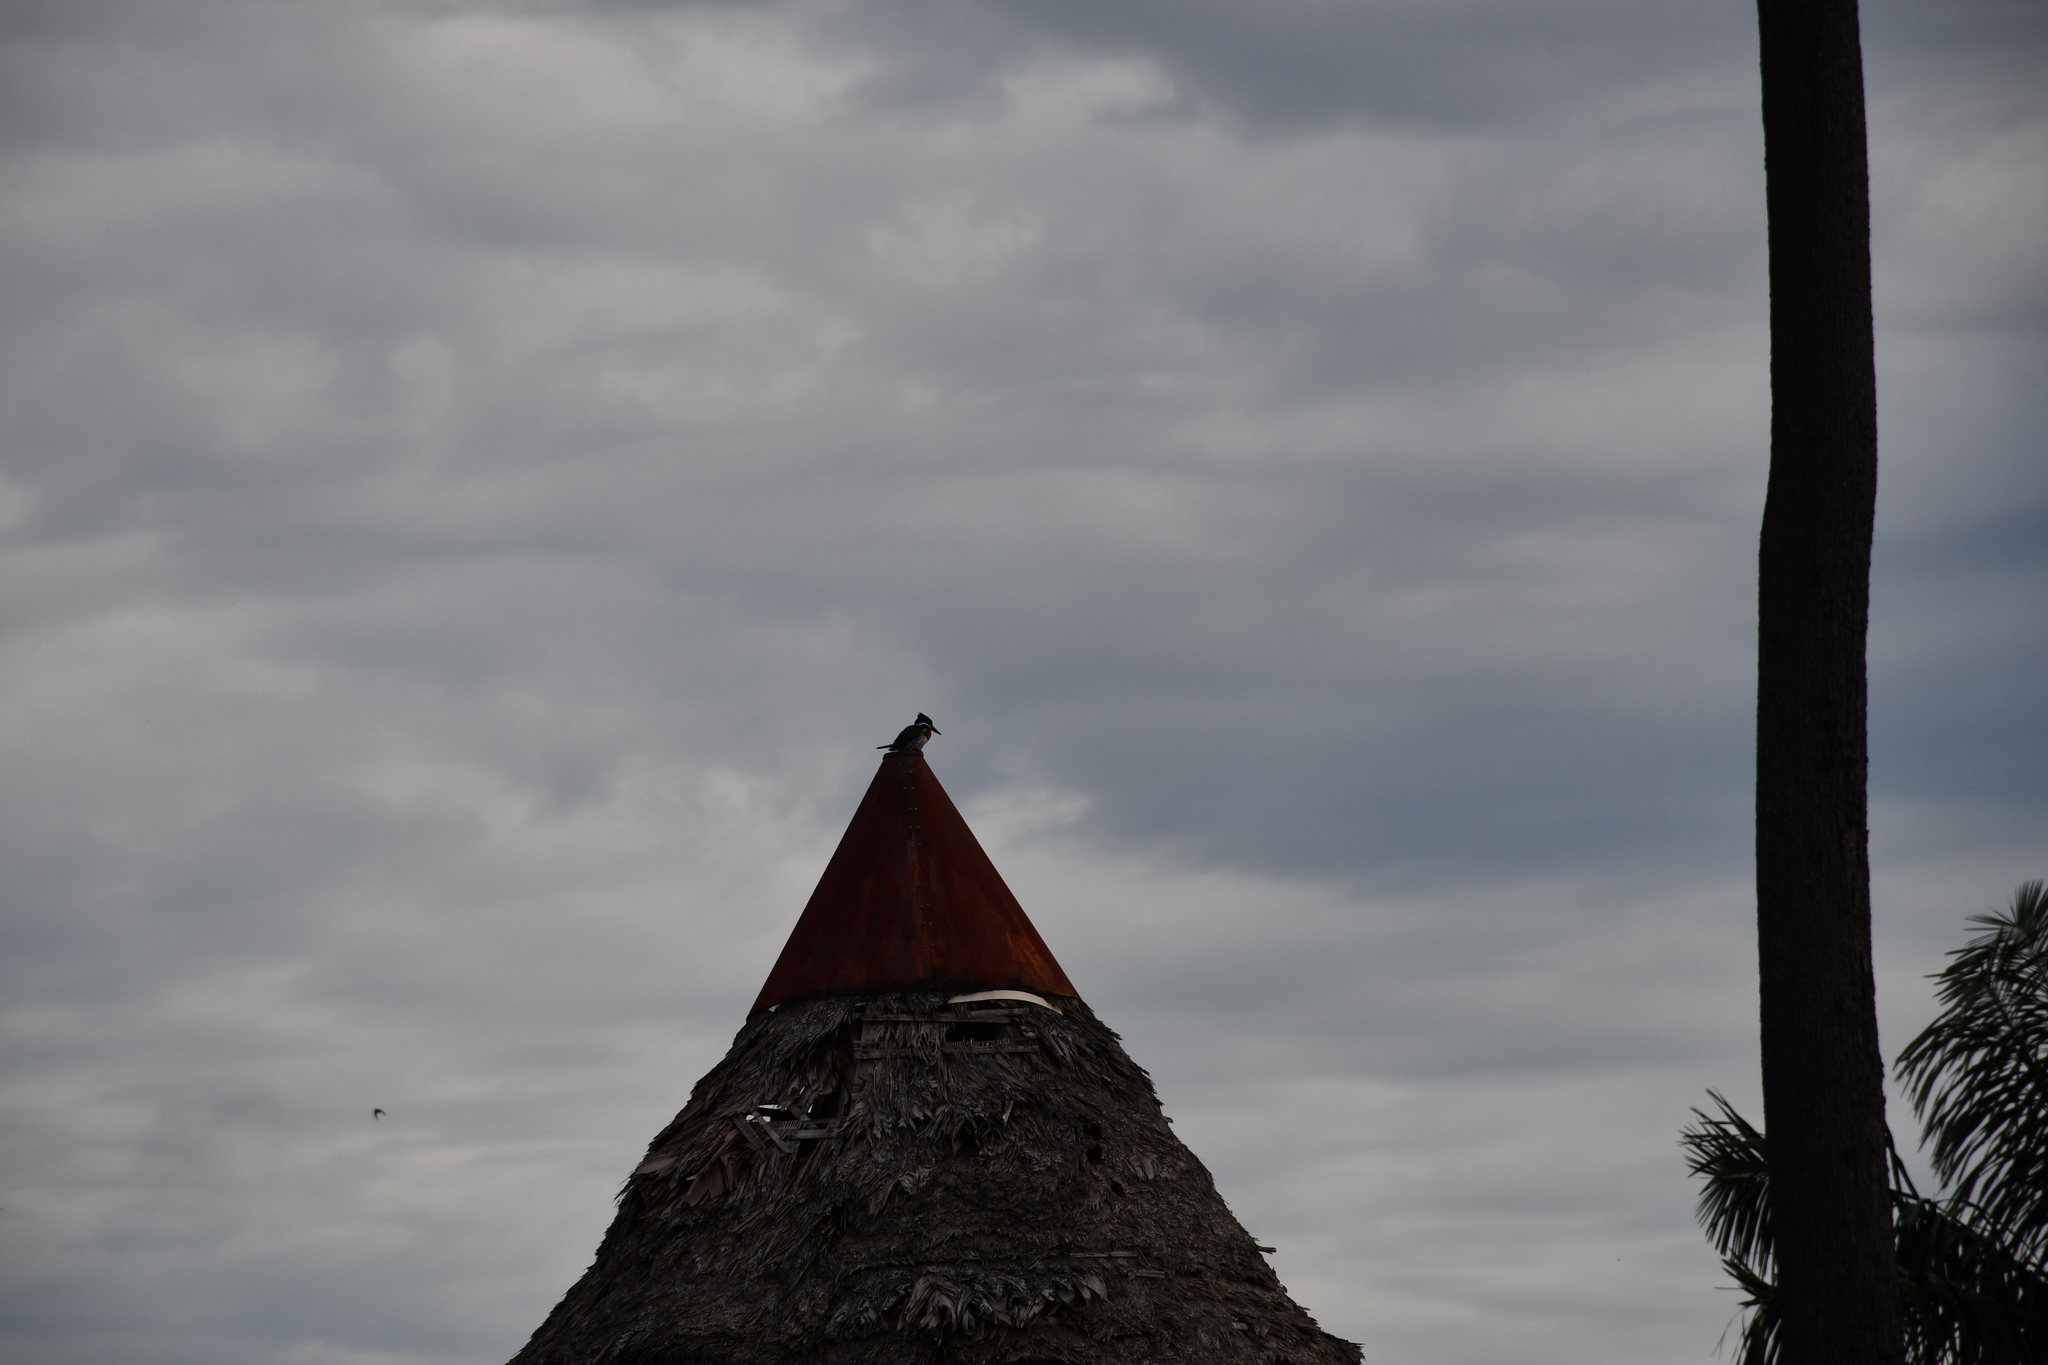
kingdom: Animalia
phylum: Chordata
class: Aves
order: Coraciiformes
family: Alcedinidae
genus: Chloroceryle
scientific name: Chloroceryle amazona
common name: Amazon kingfisher
